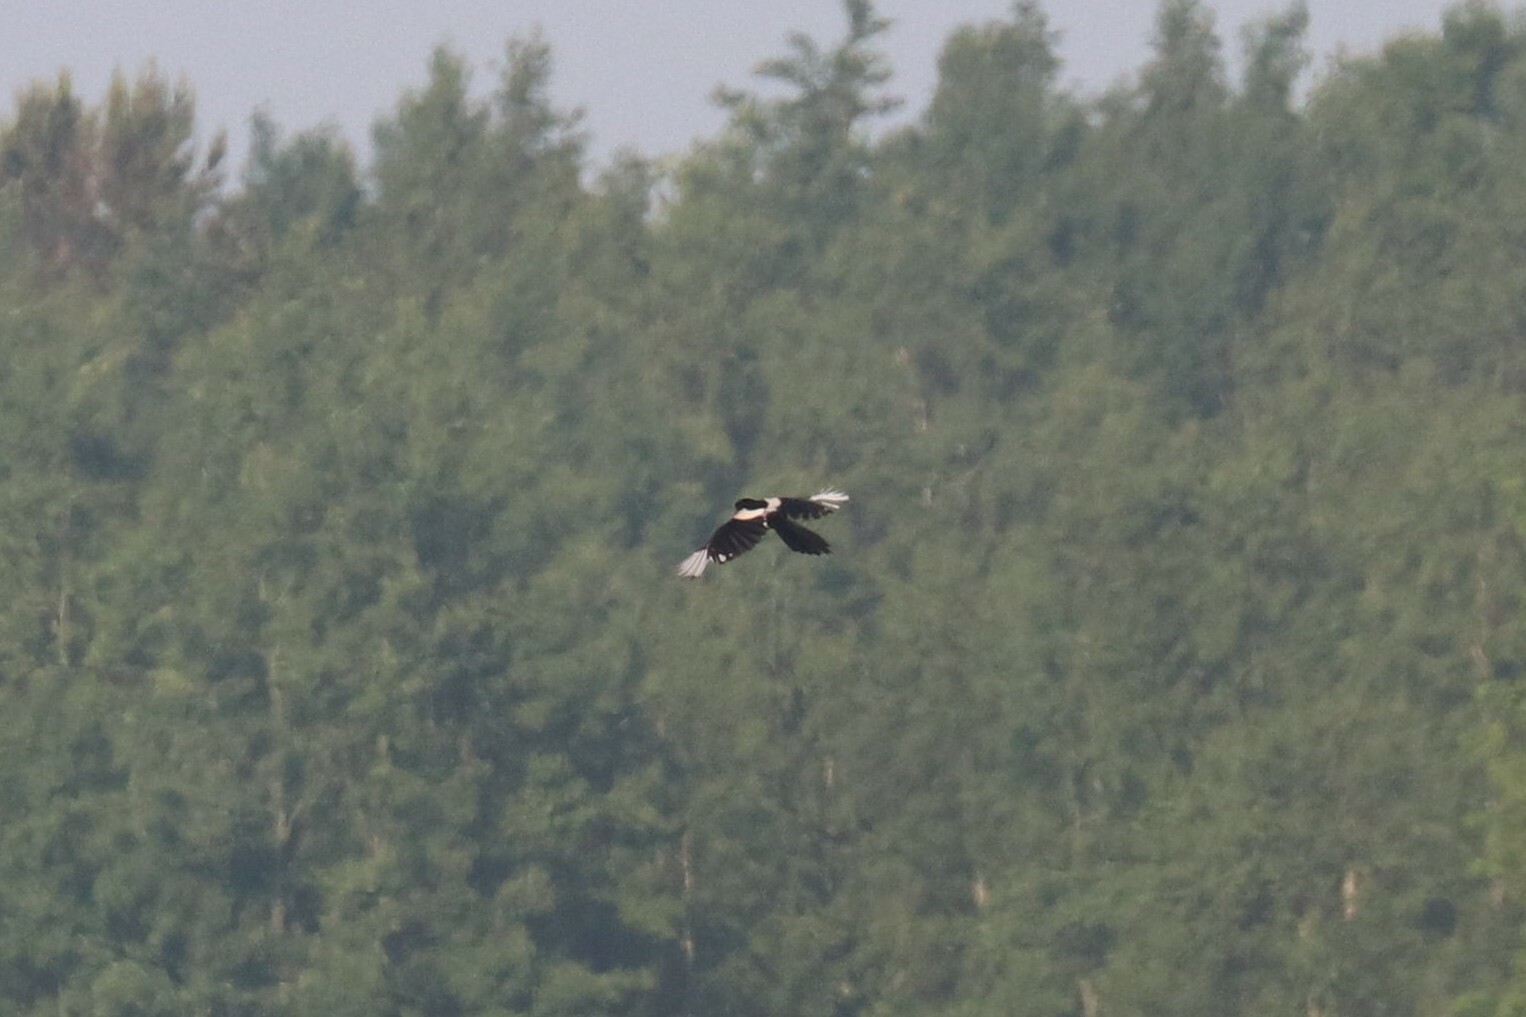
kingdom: Animalia
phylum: Chordata
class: Aves
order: Passeriformes
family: Corvidae
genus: Pica
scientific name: Pica pica
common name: Eurasian magpie
